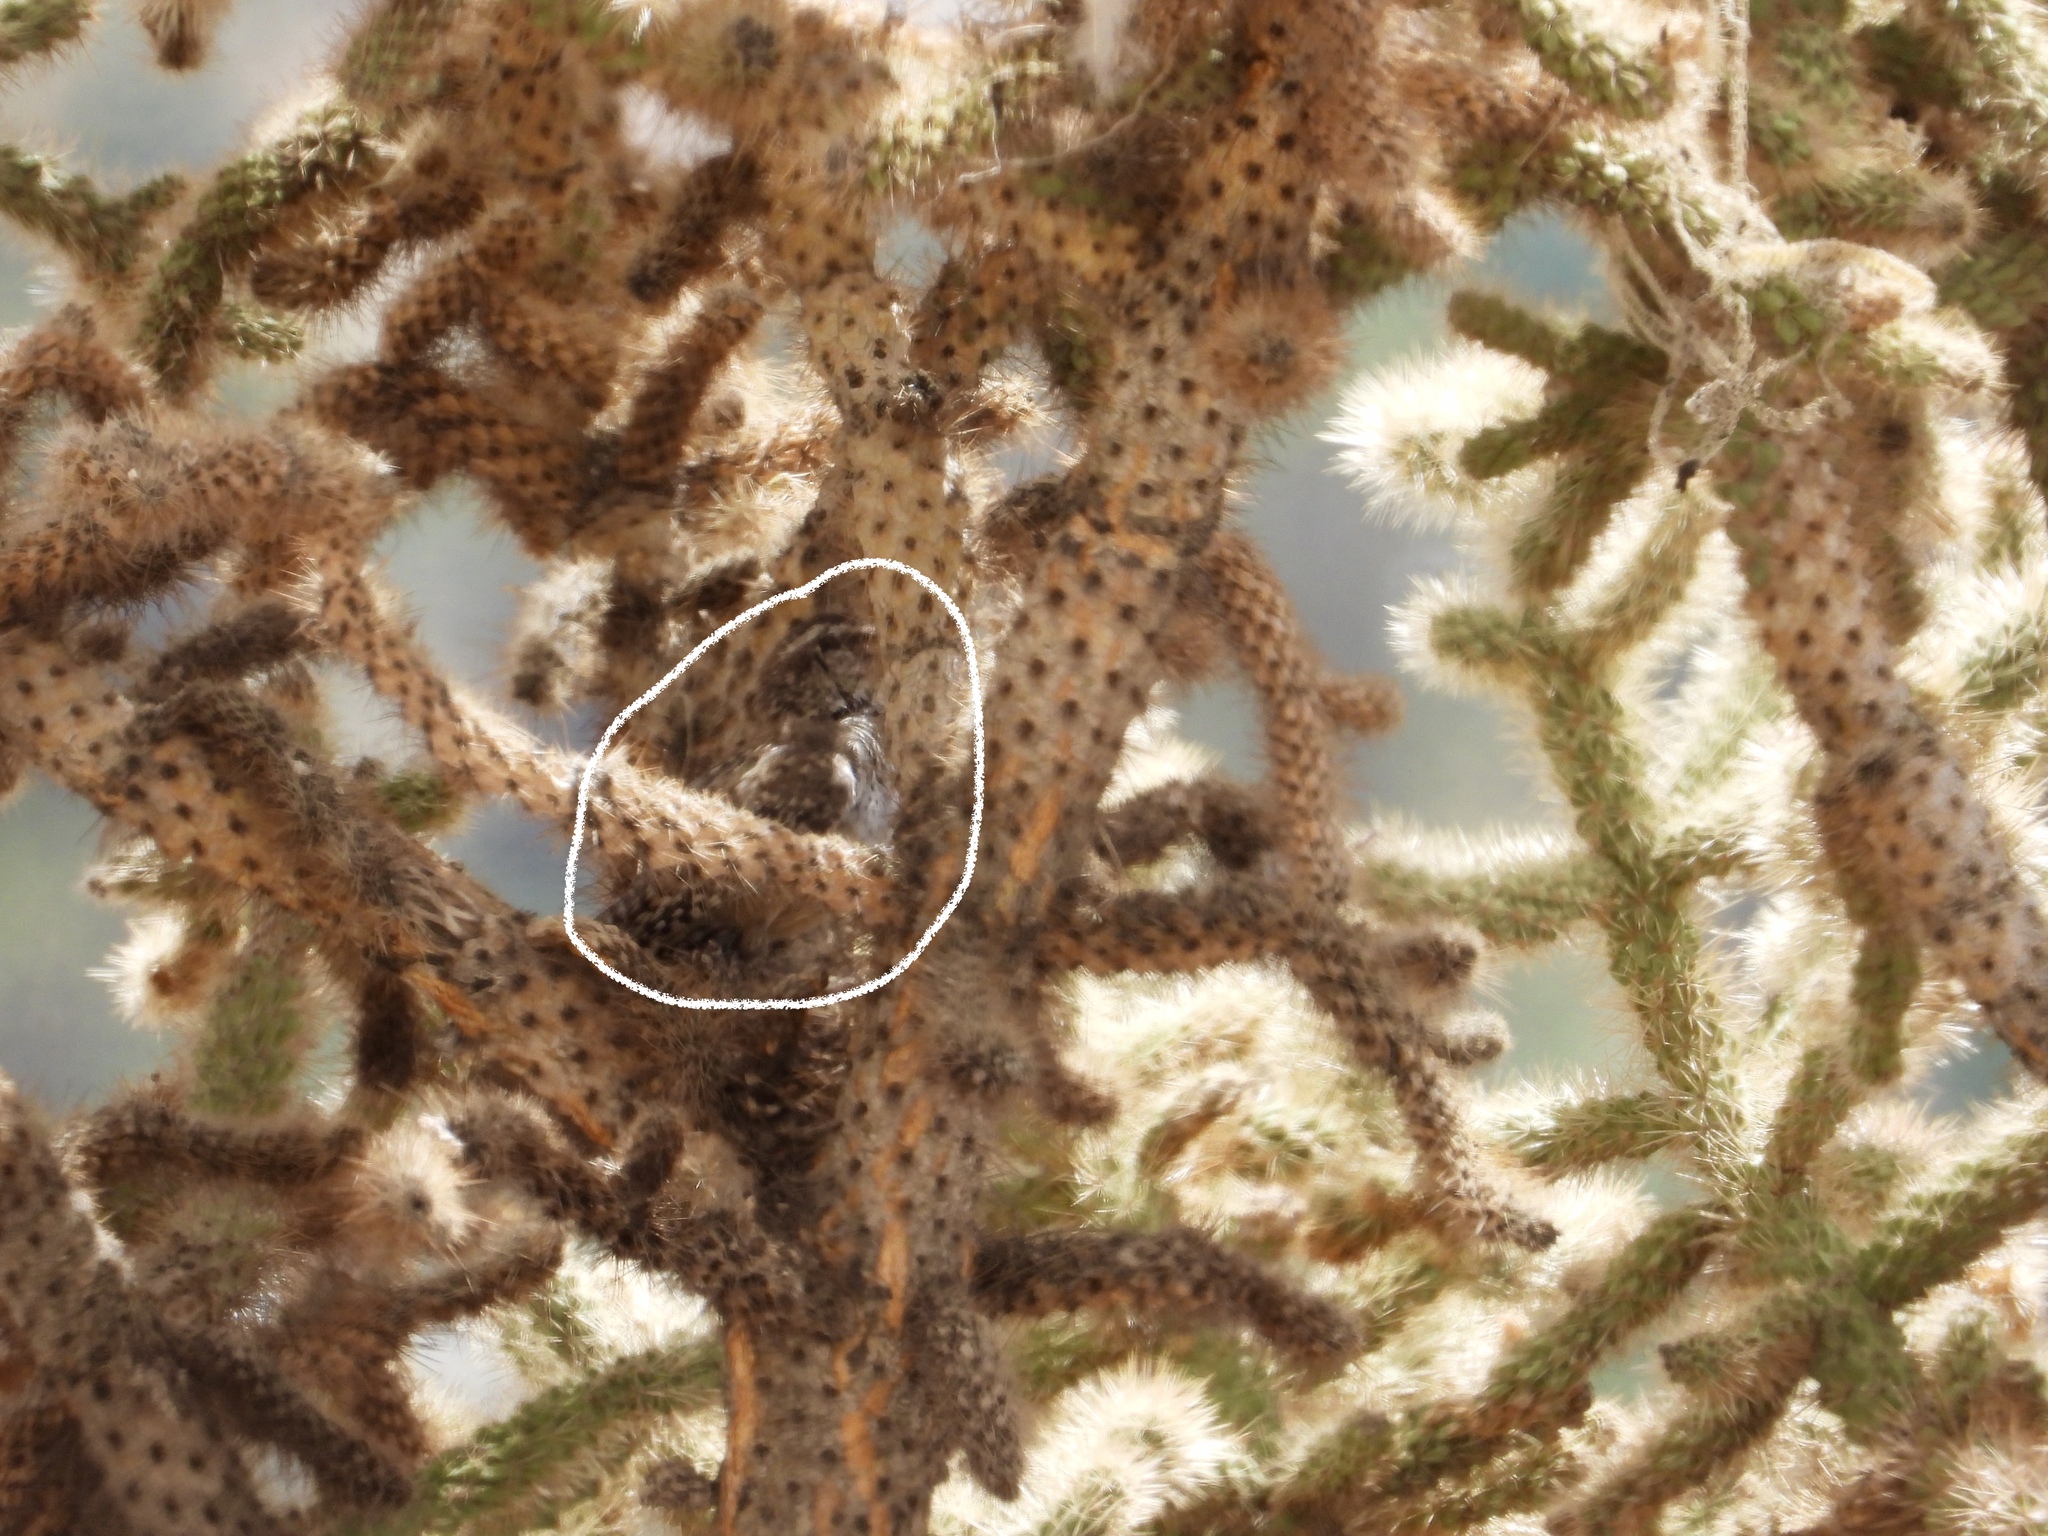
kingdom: Animalia
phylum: Chordata
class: Aves
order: Passeriformes
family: Troglodytidae
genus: Campylorhynchus
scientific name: Campylorhynchus brunneicapillus
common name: Cactus wren
